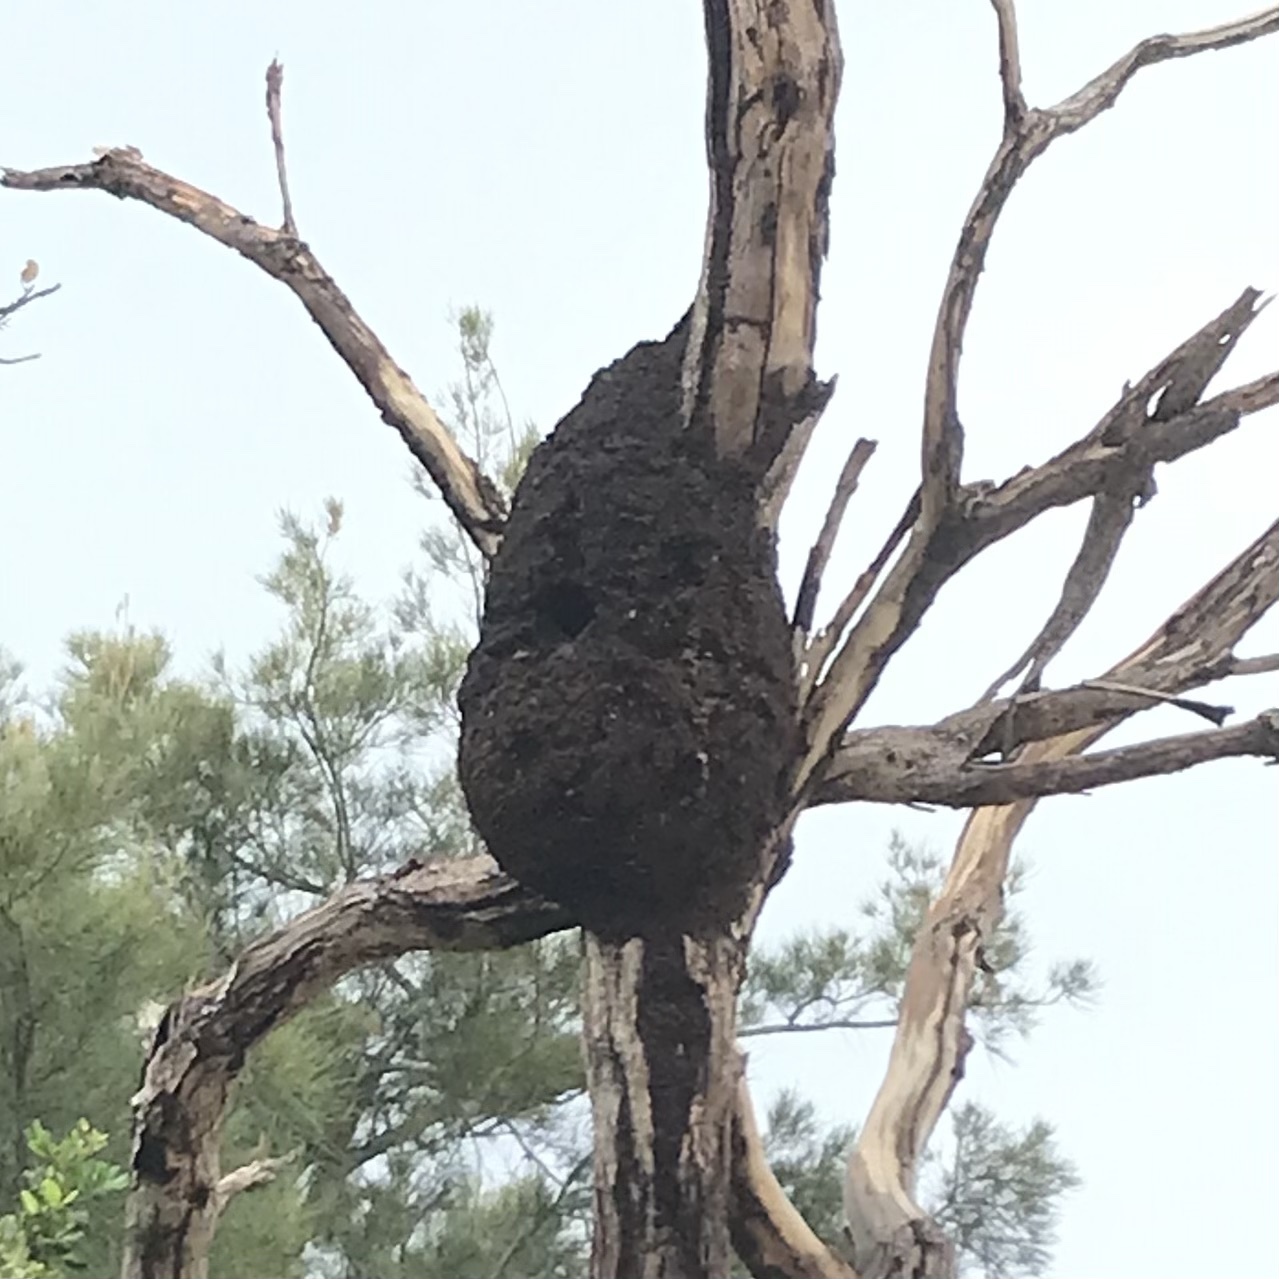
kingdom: Animalia
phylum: Chordata
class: Aves
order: Coraciiformes
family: Alcedinidae
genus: Dacelo
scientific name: Dacelo novaeguineae
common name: Laughing kookaburra
